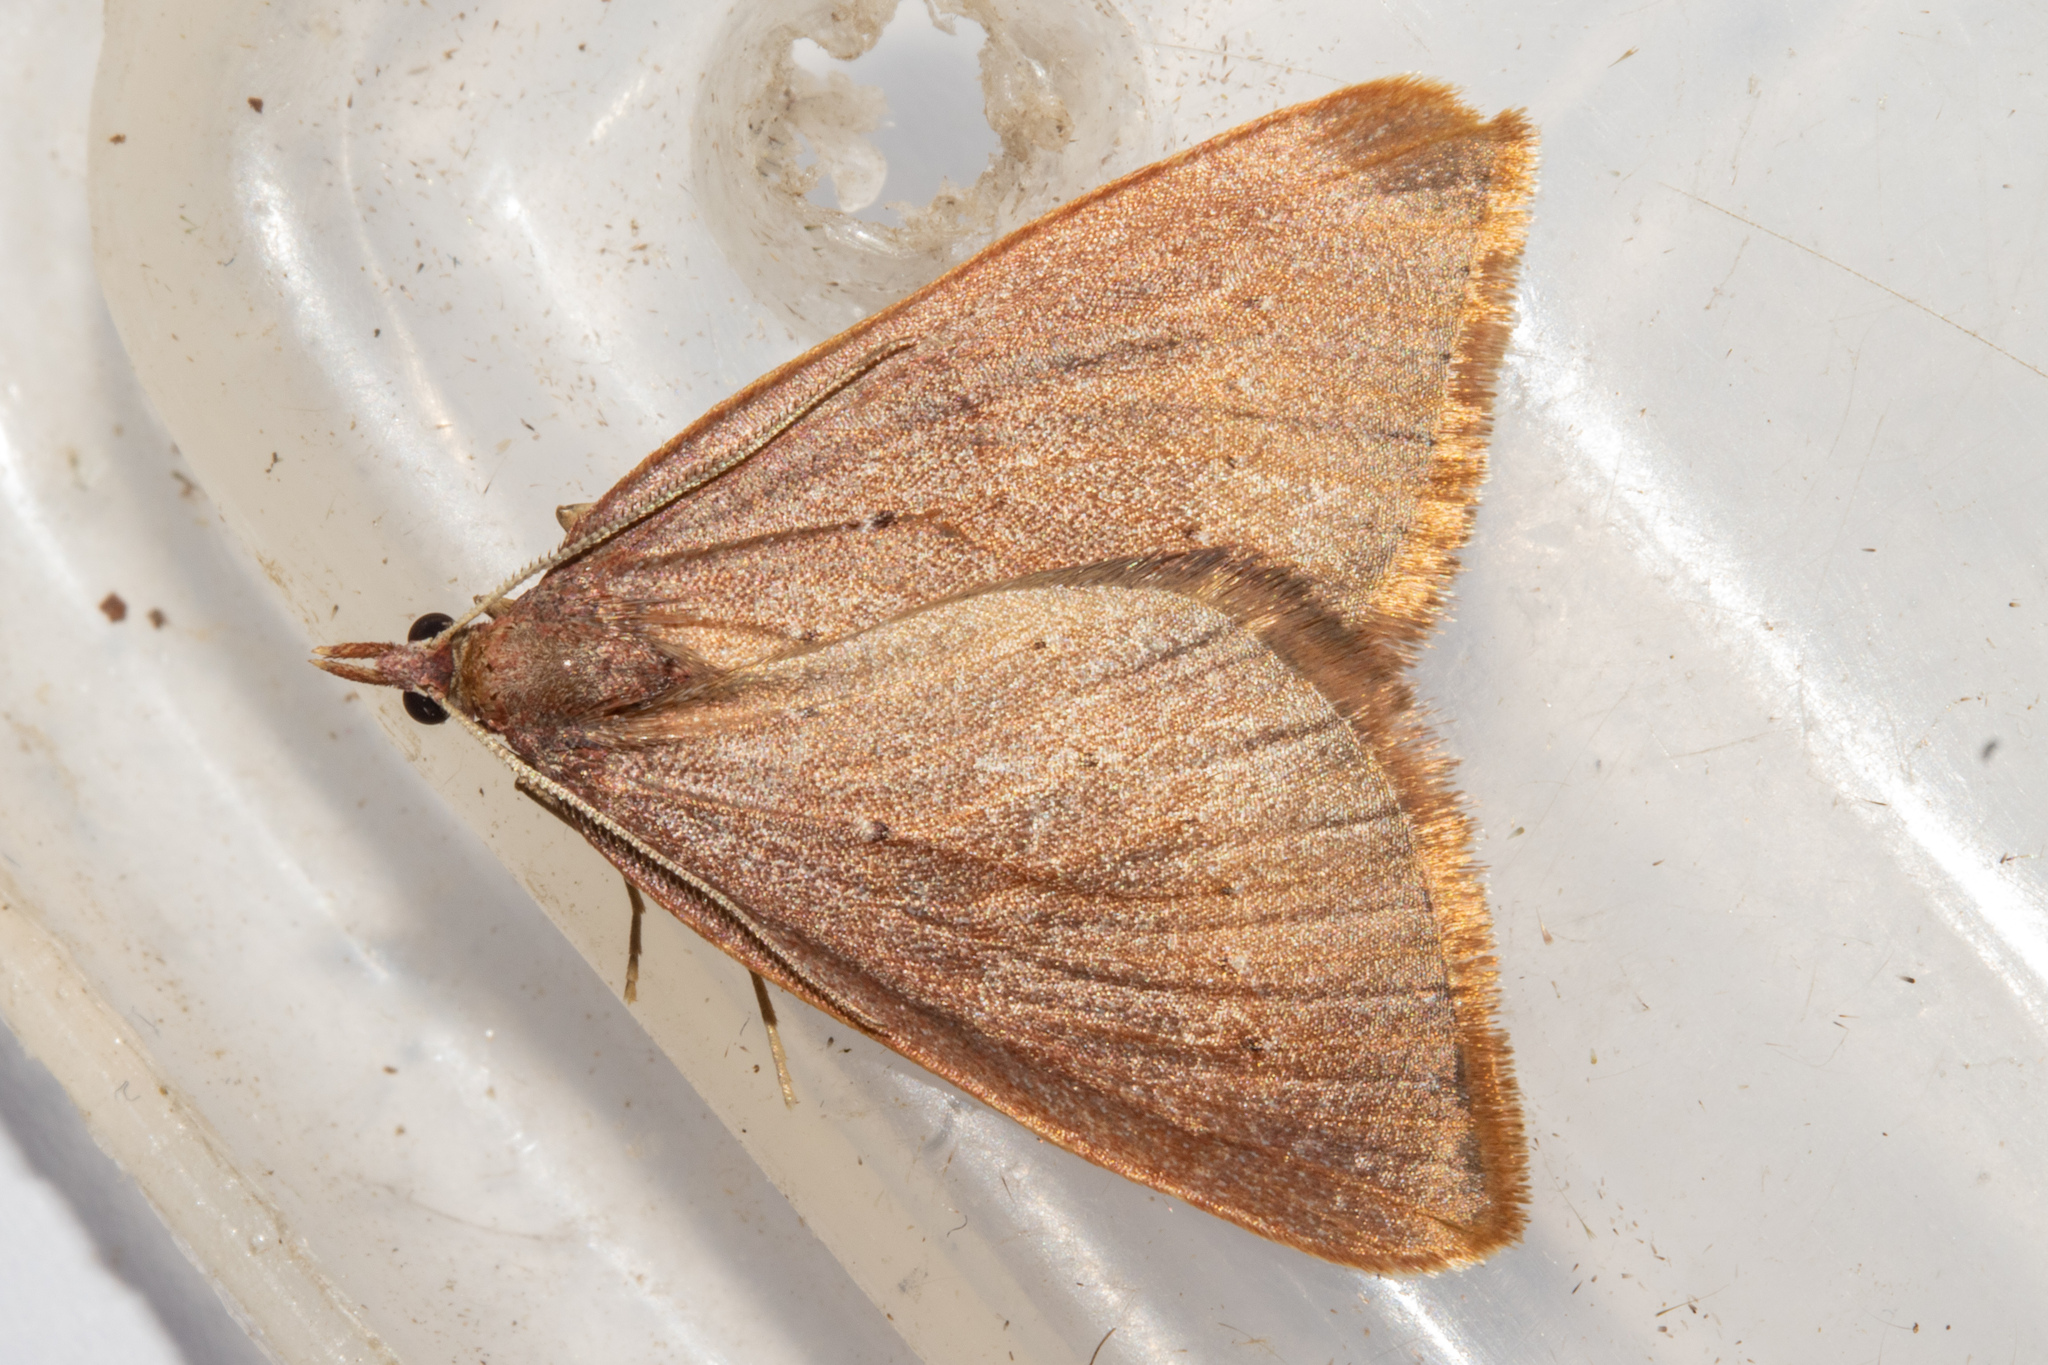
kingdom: Animalia
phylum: Arthropoda
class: Insecta
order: Lepidoptera
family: Geometridae
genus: Xanthorhoe
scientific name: Xanthorhoe occulta
